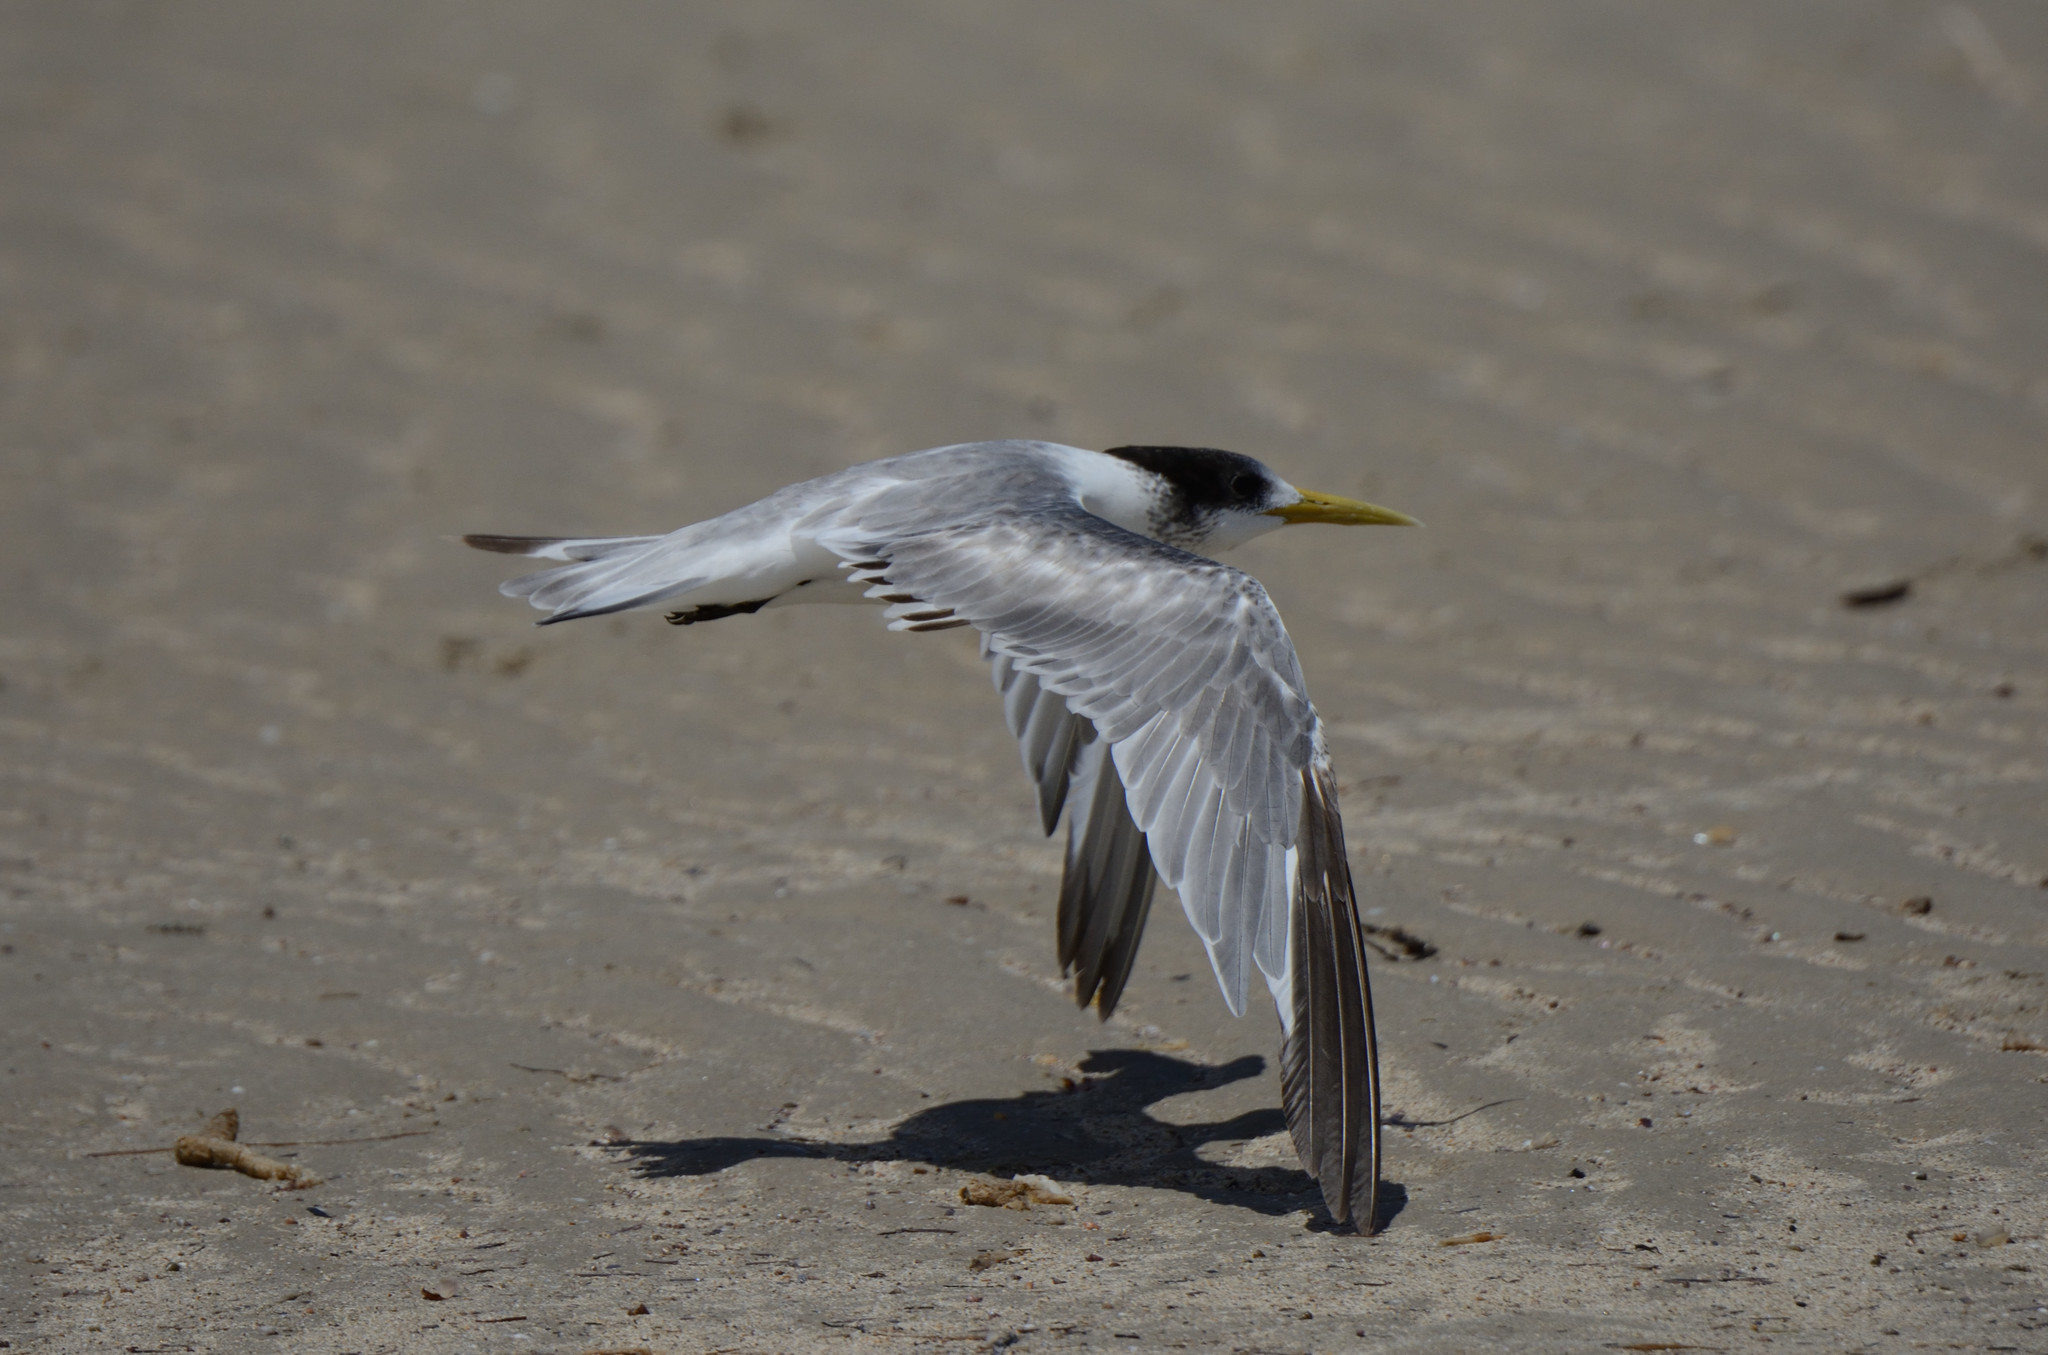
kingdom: Animalia
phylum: Chordata
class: Aves
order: Charadriiformes
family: Laridae
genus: Thalasseus
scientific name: Thalasseus bergii
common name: Greater crested tern
